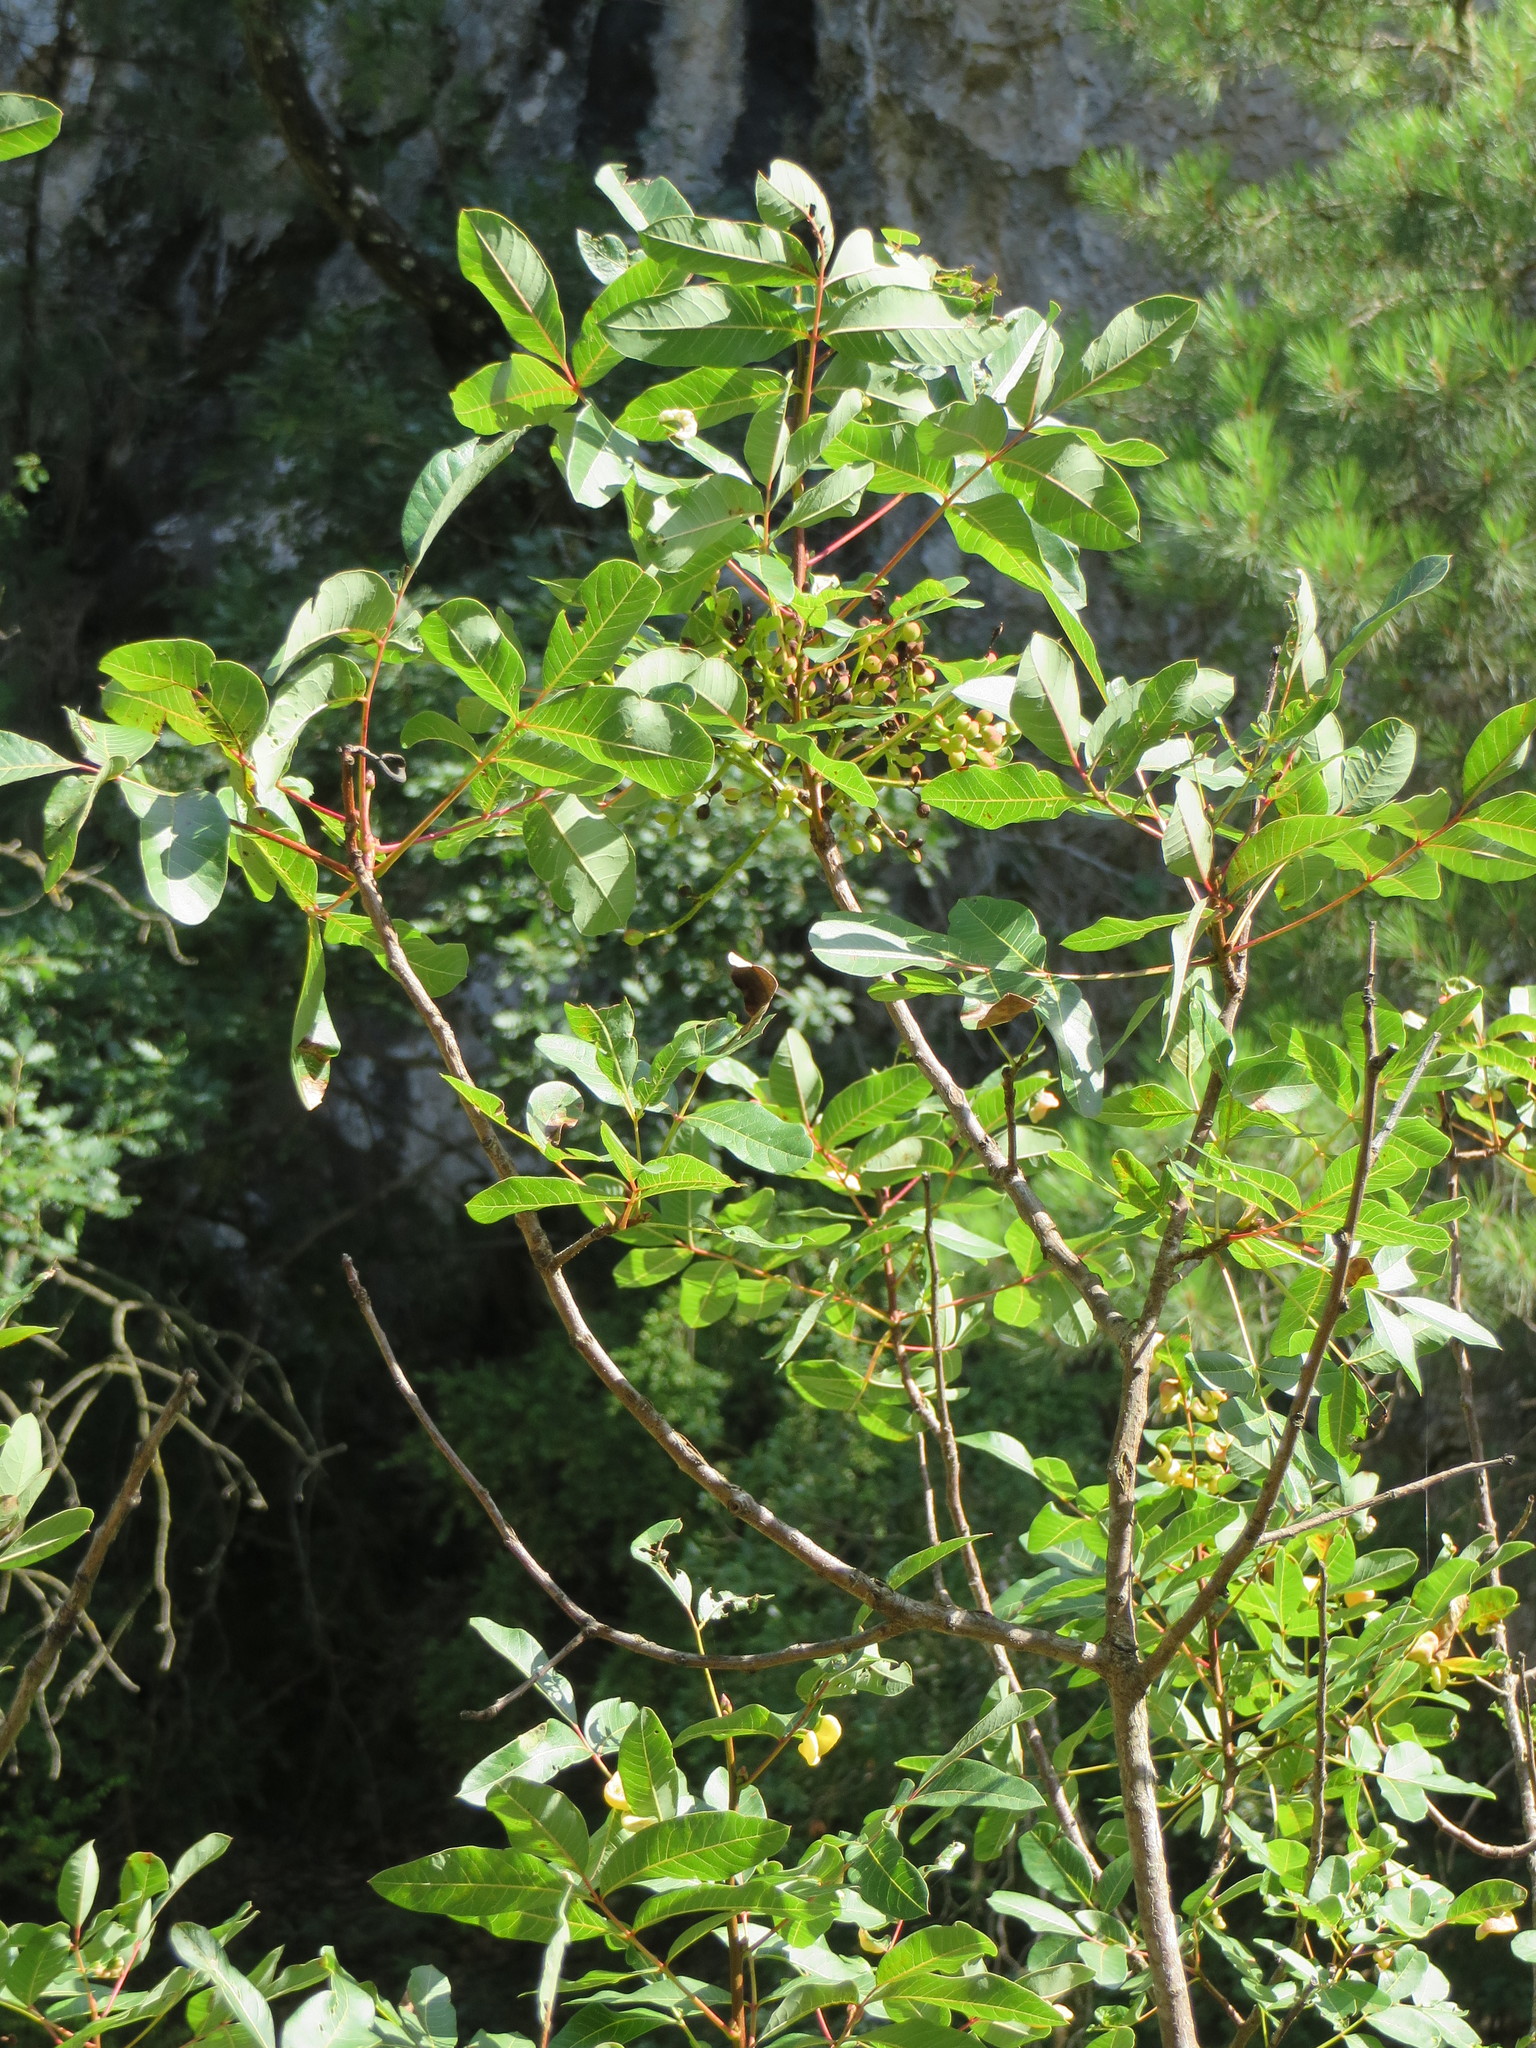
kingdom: Plantae
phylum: Tracheophyta
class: Magnoliopsida
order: Sapindales
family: Anacardiaceae
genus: Pistacia
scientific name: Pistacia terebinthus
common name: Terebinth
